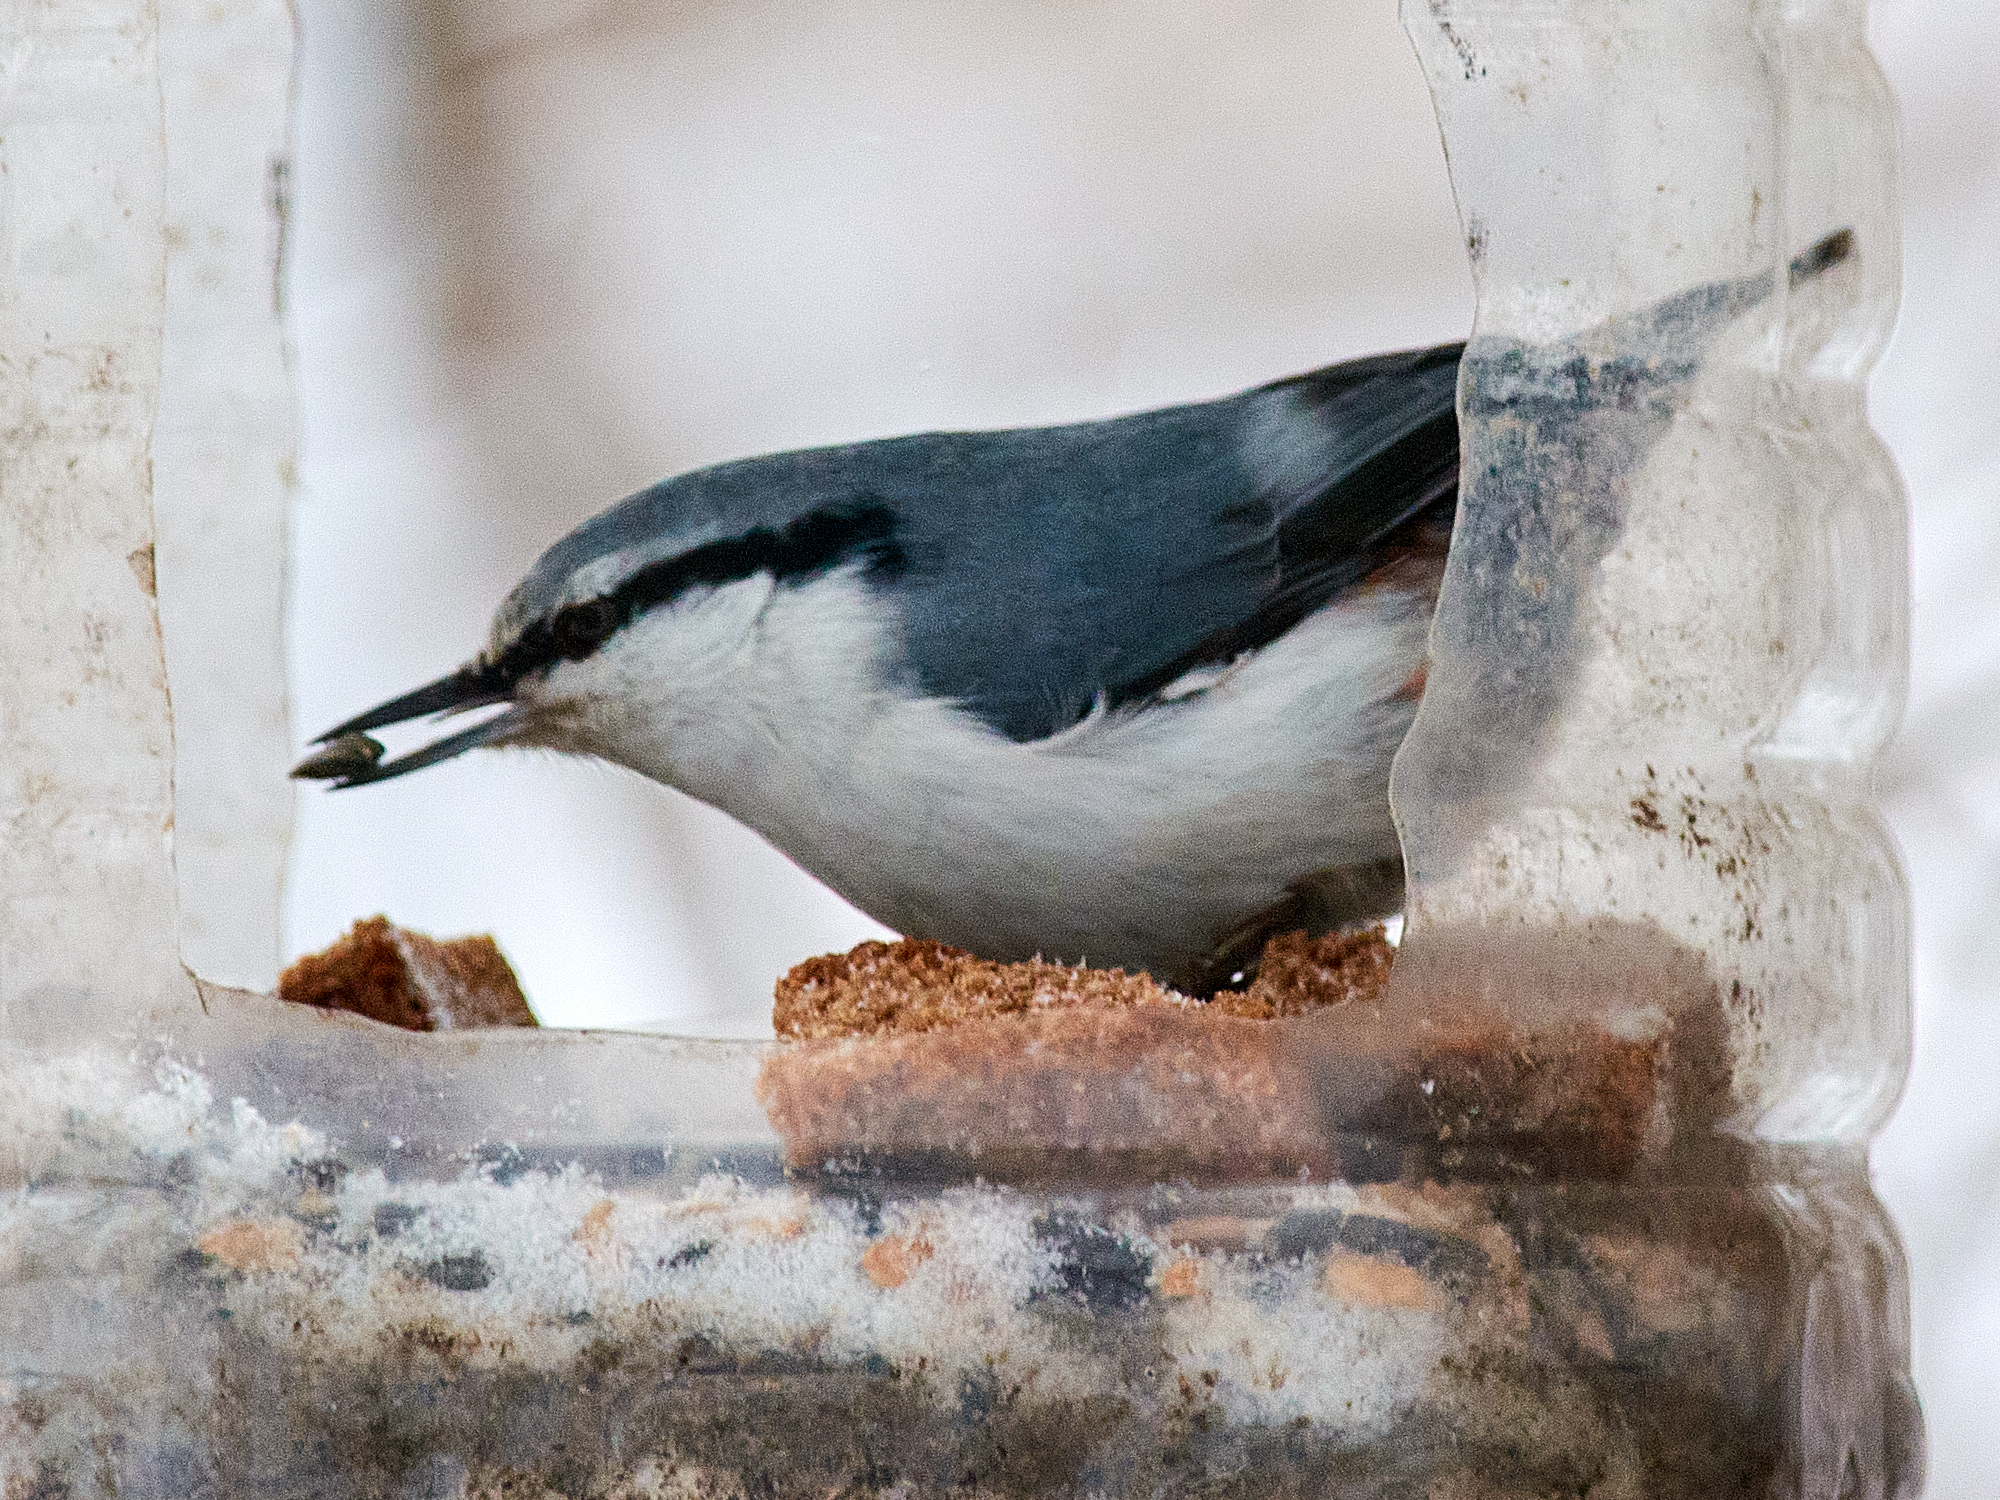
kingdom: Animalia
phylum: Chordata
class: Aves
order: Passeriformes
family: Sittidae
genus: Sitta
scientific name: Sitta europaea
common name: Eurasian nuthatch
